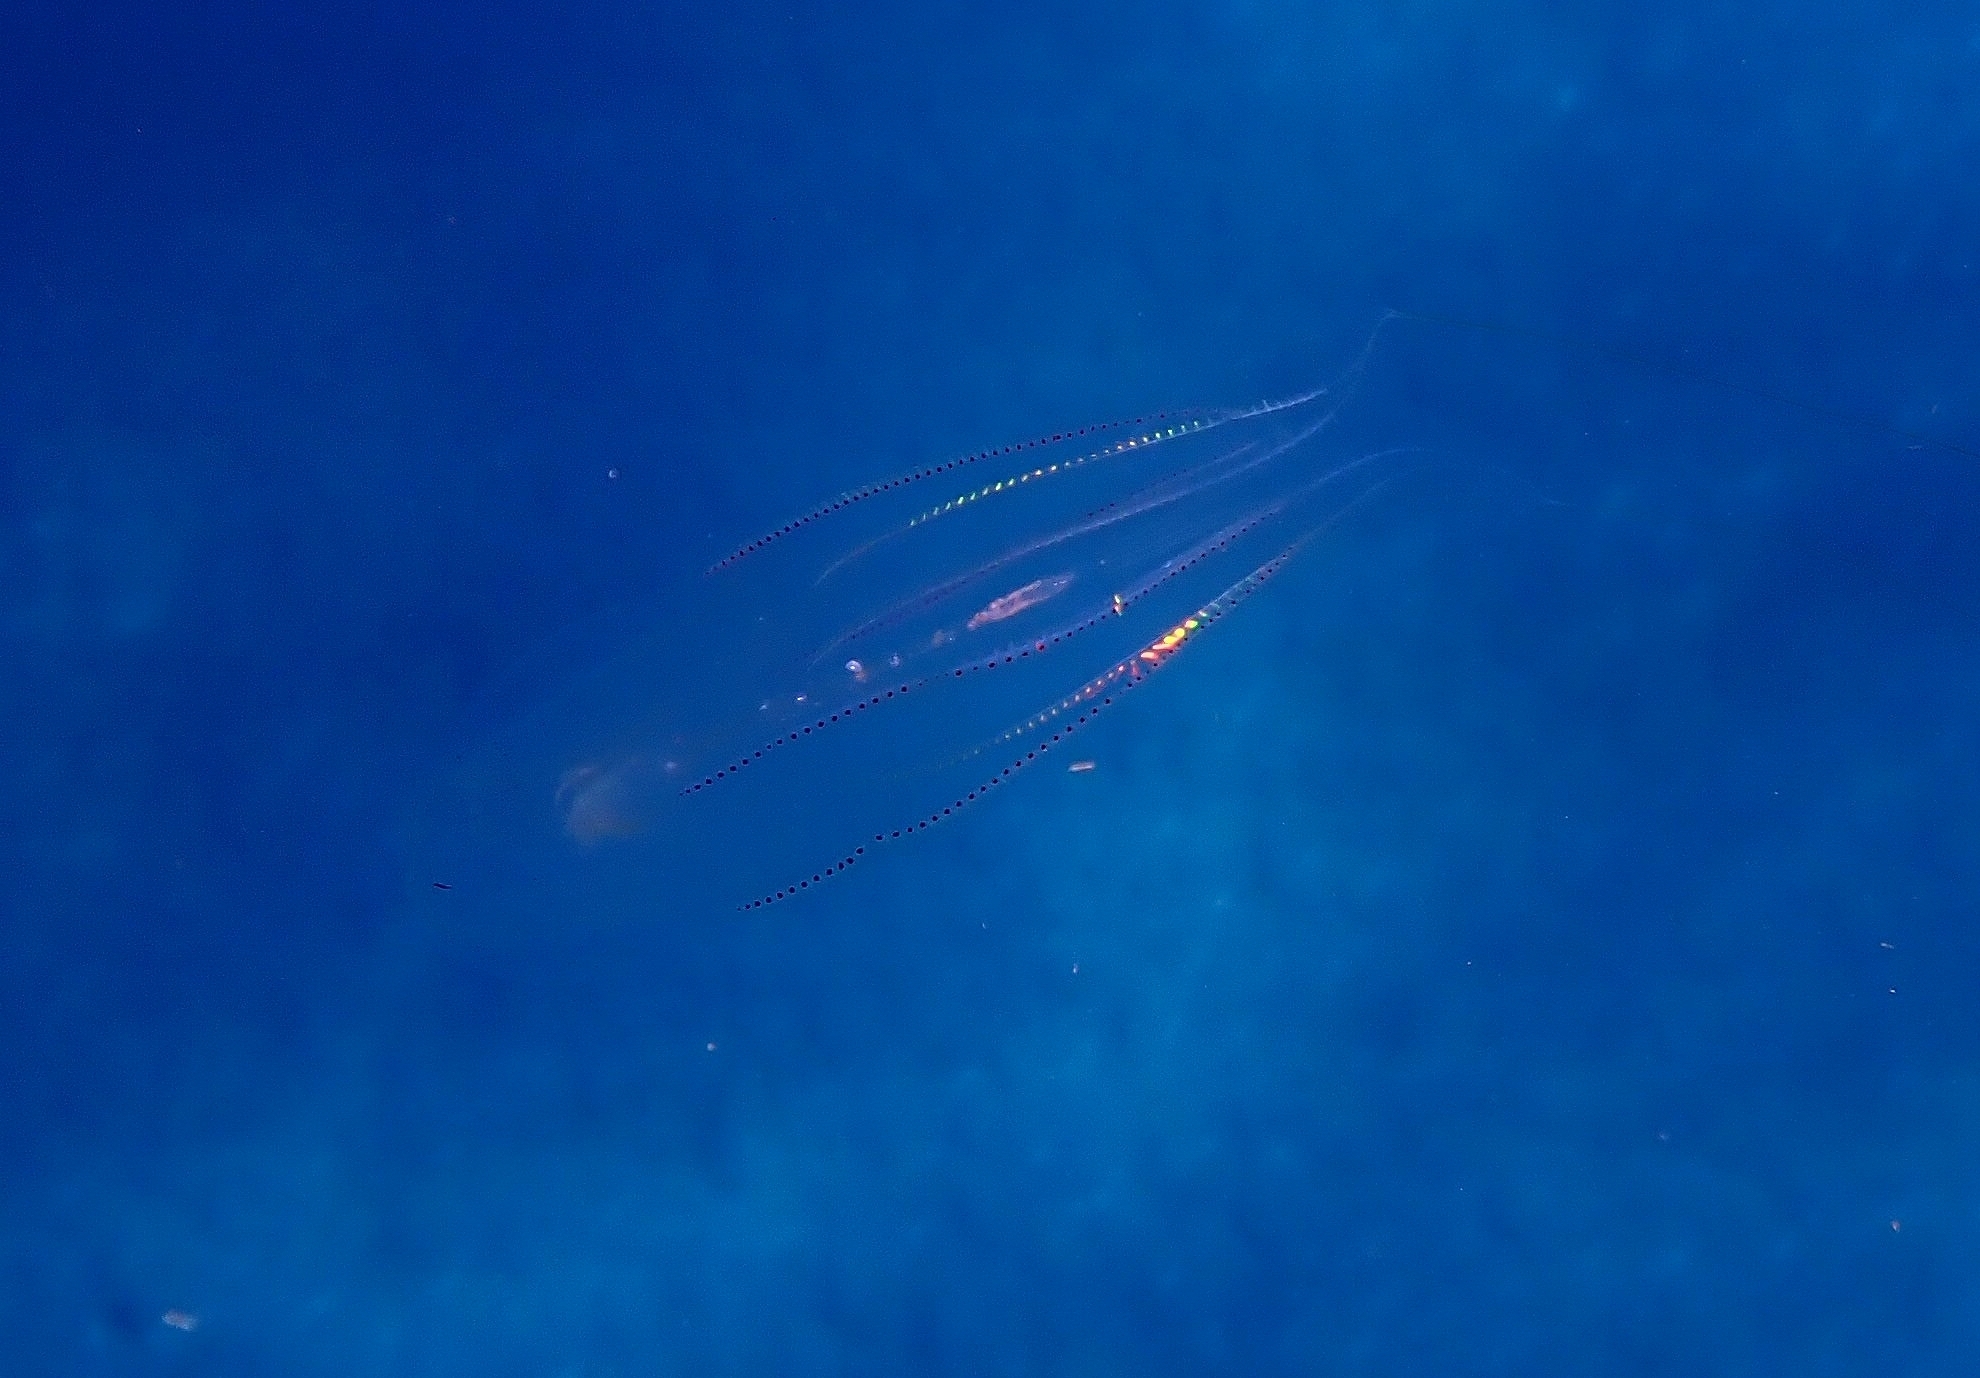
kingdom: Animalia
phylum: Ctenophora
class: Tentaculata
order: Lobata
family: Eurhamphaeidae
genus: Eurhamphaea
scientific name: Eurhamphaea vexilligera
